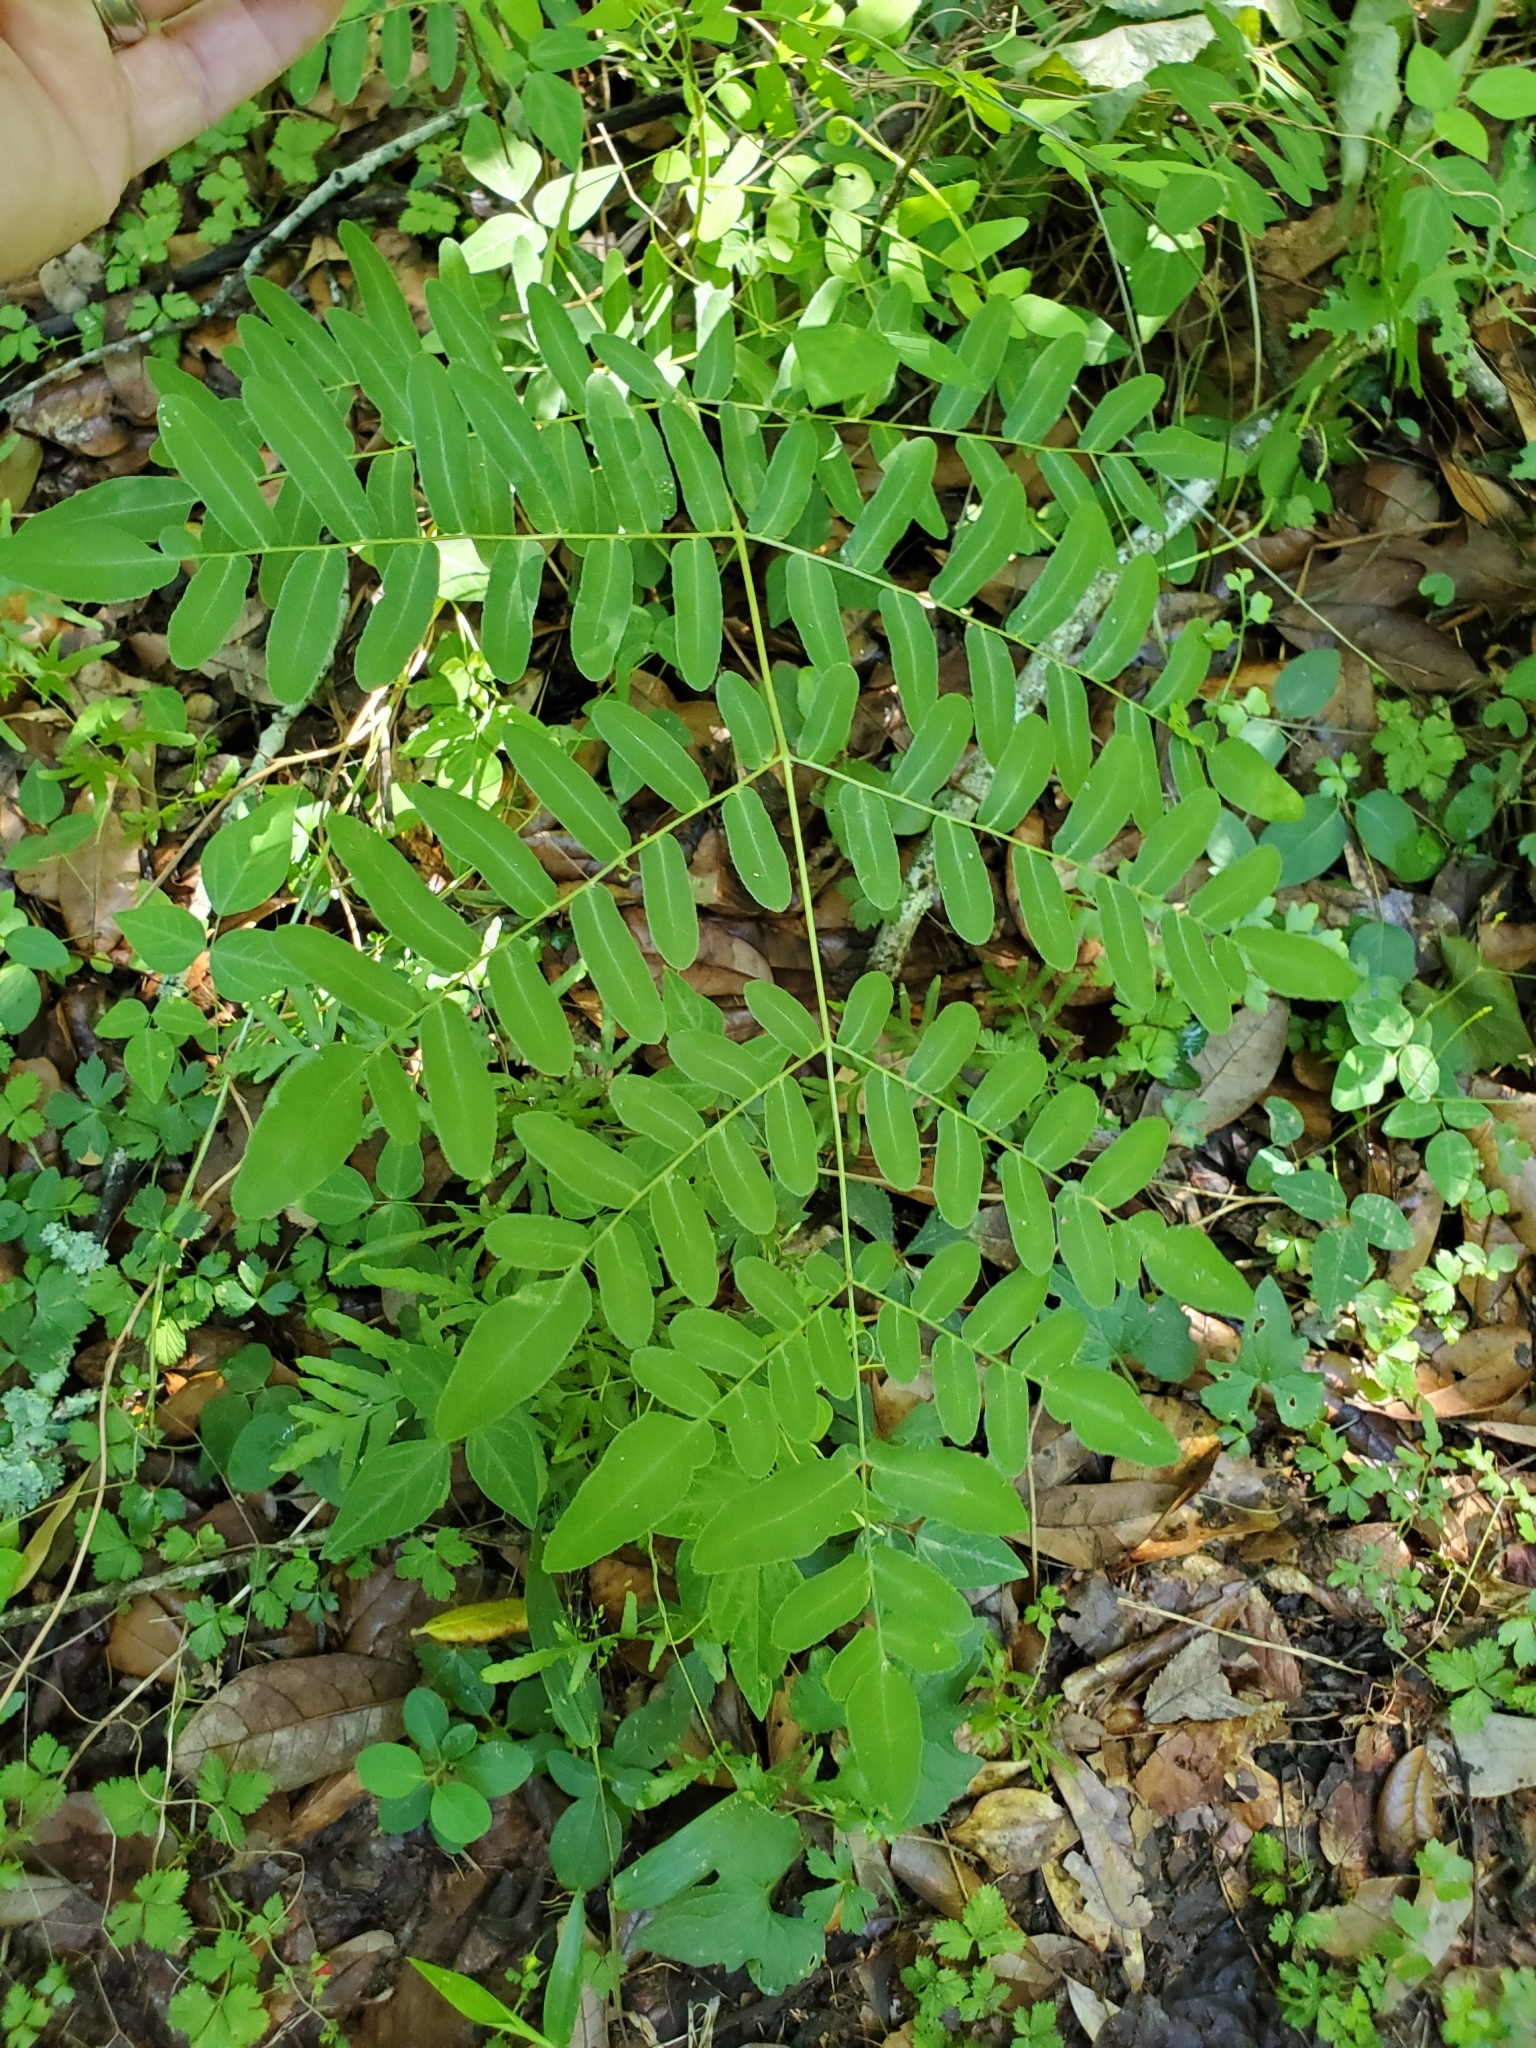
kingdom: Plantae
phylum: Tracheophyta
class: Polypodiopsida
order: Osmundales
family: Osmundaceae
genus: Osmunda
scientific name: Osmunda spectabilis
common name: American royal fern
